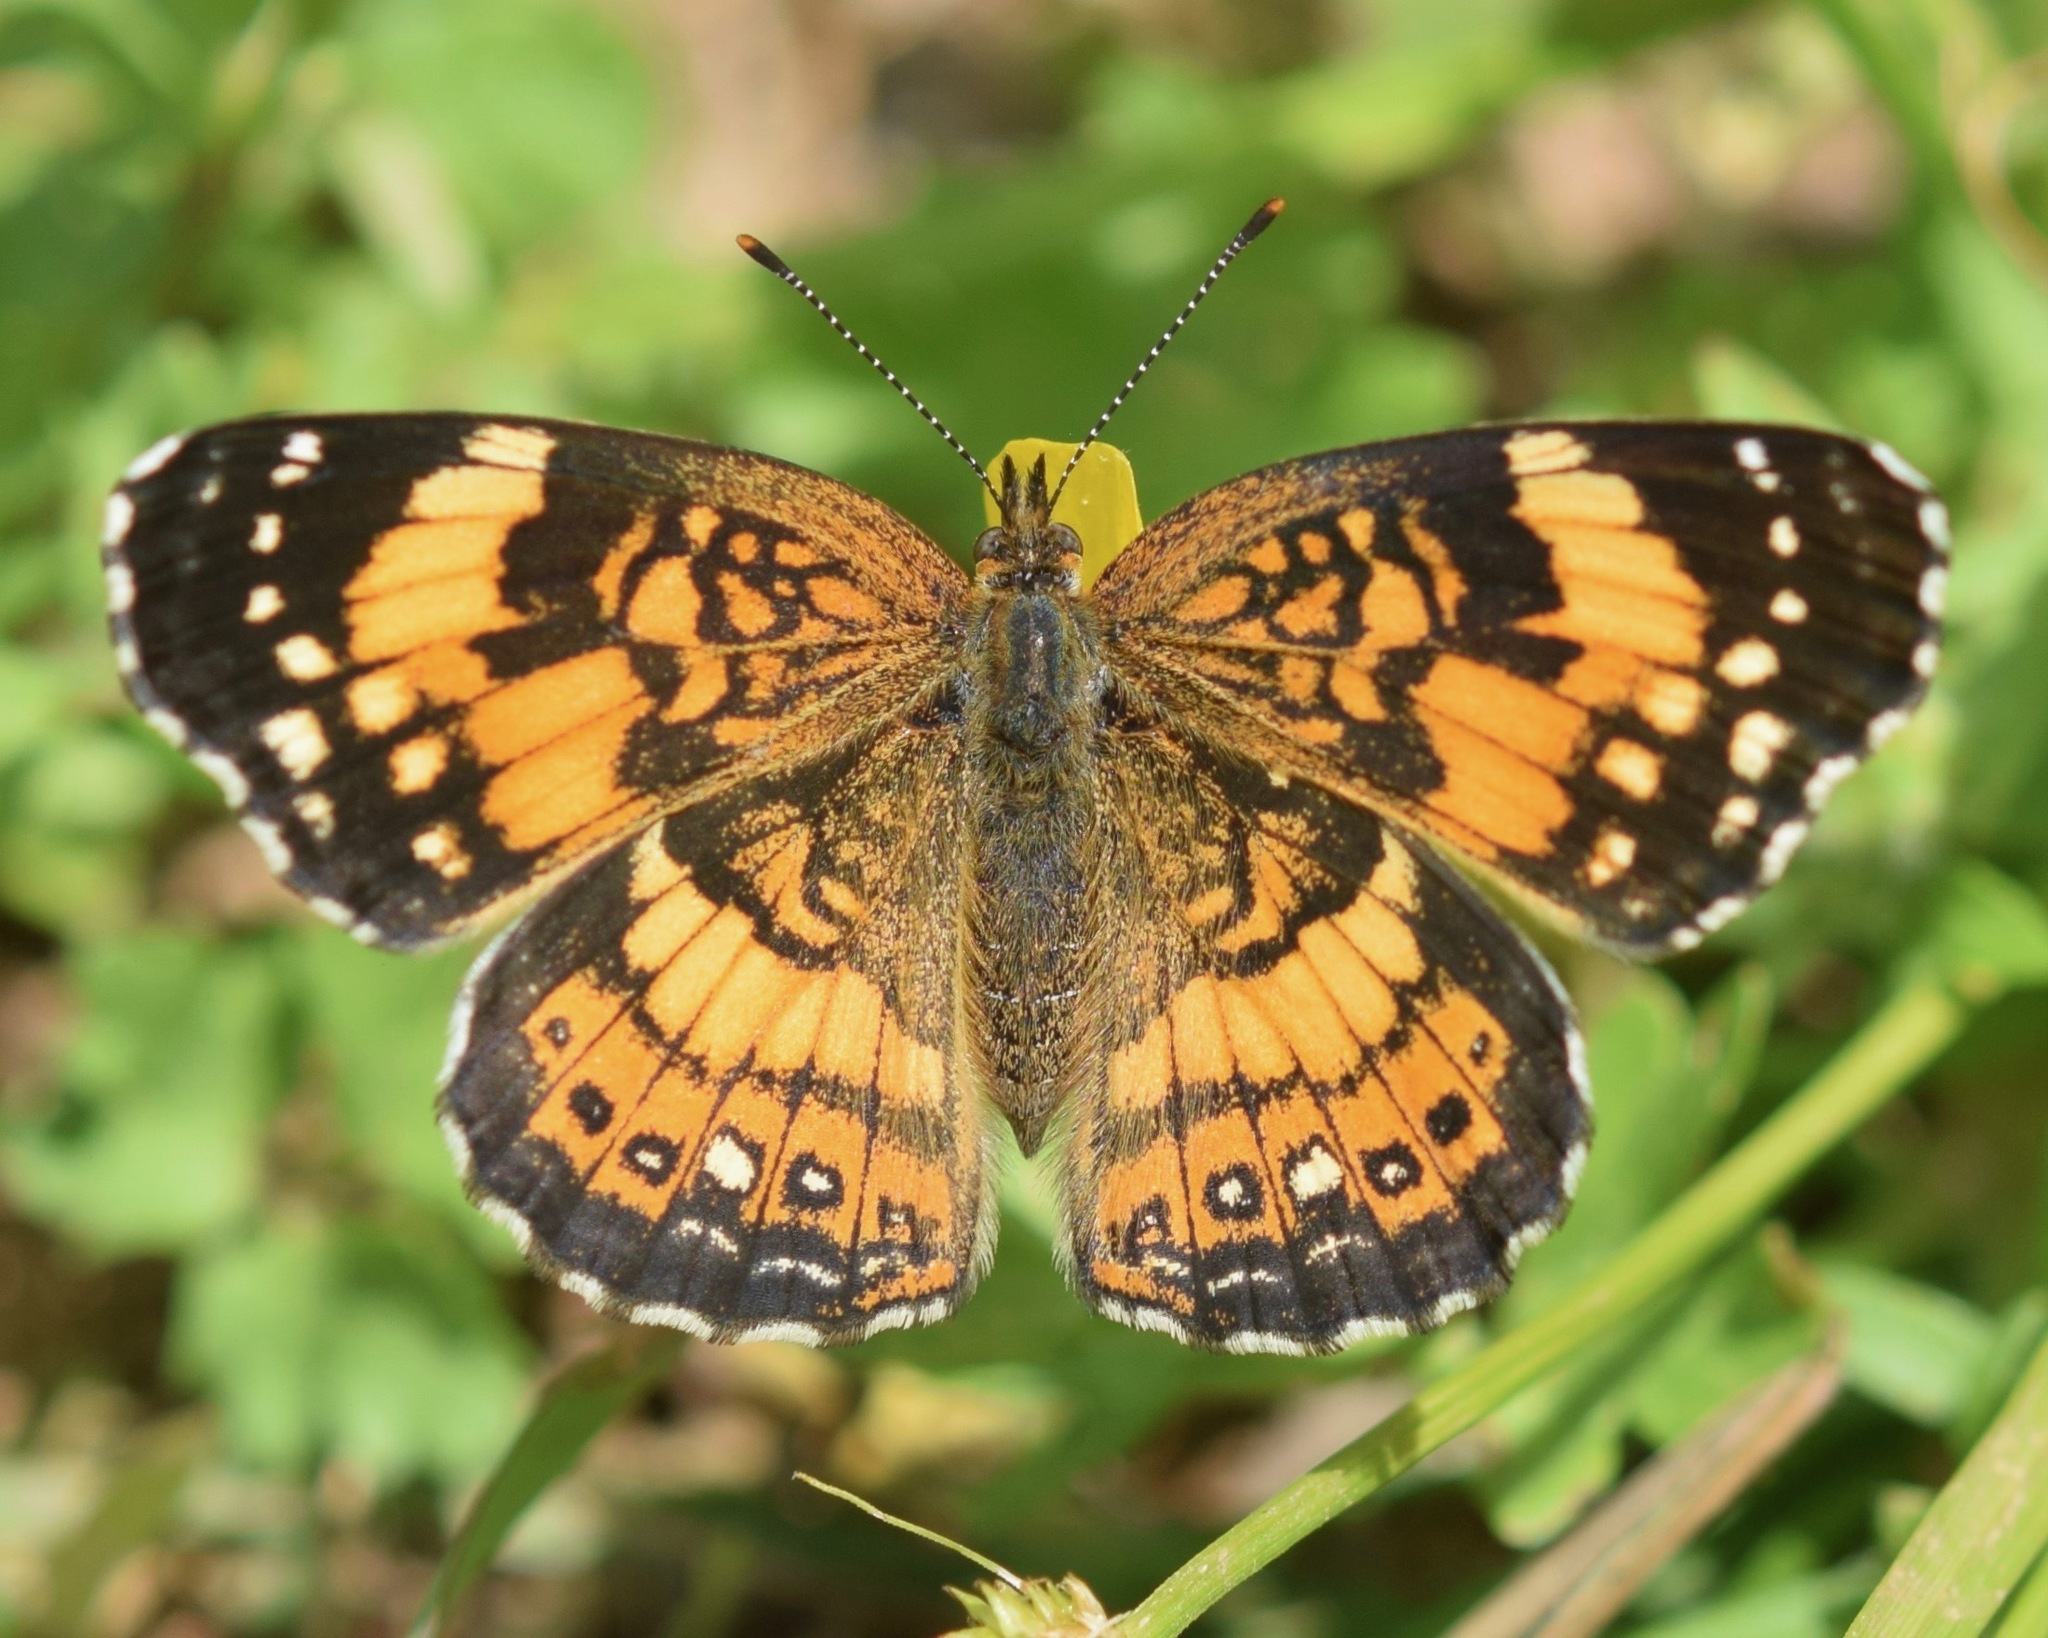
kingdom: Animalia
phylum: Arthropoda
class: Insecta
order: Lepidoptera
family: Nymphalidae
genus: Chlosyne
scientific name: Chlosyne nycteis
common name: Silvery checkerspot
